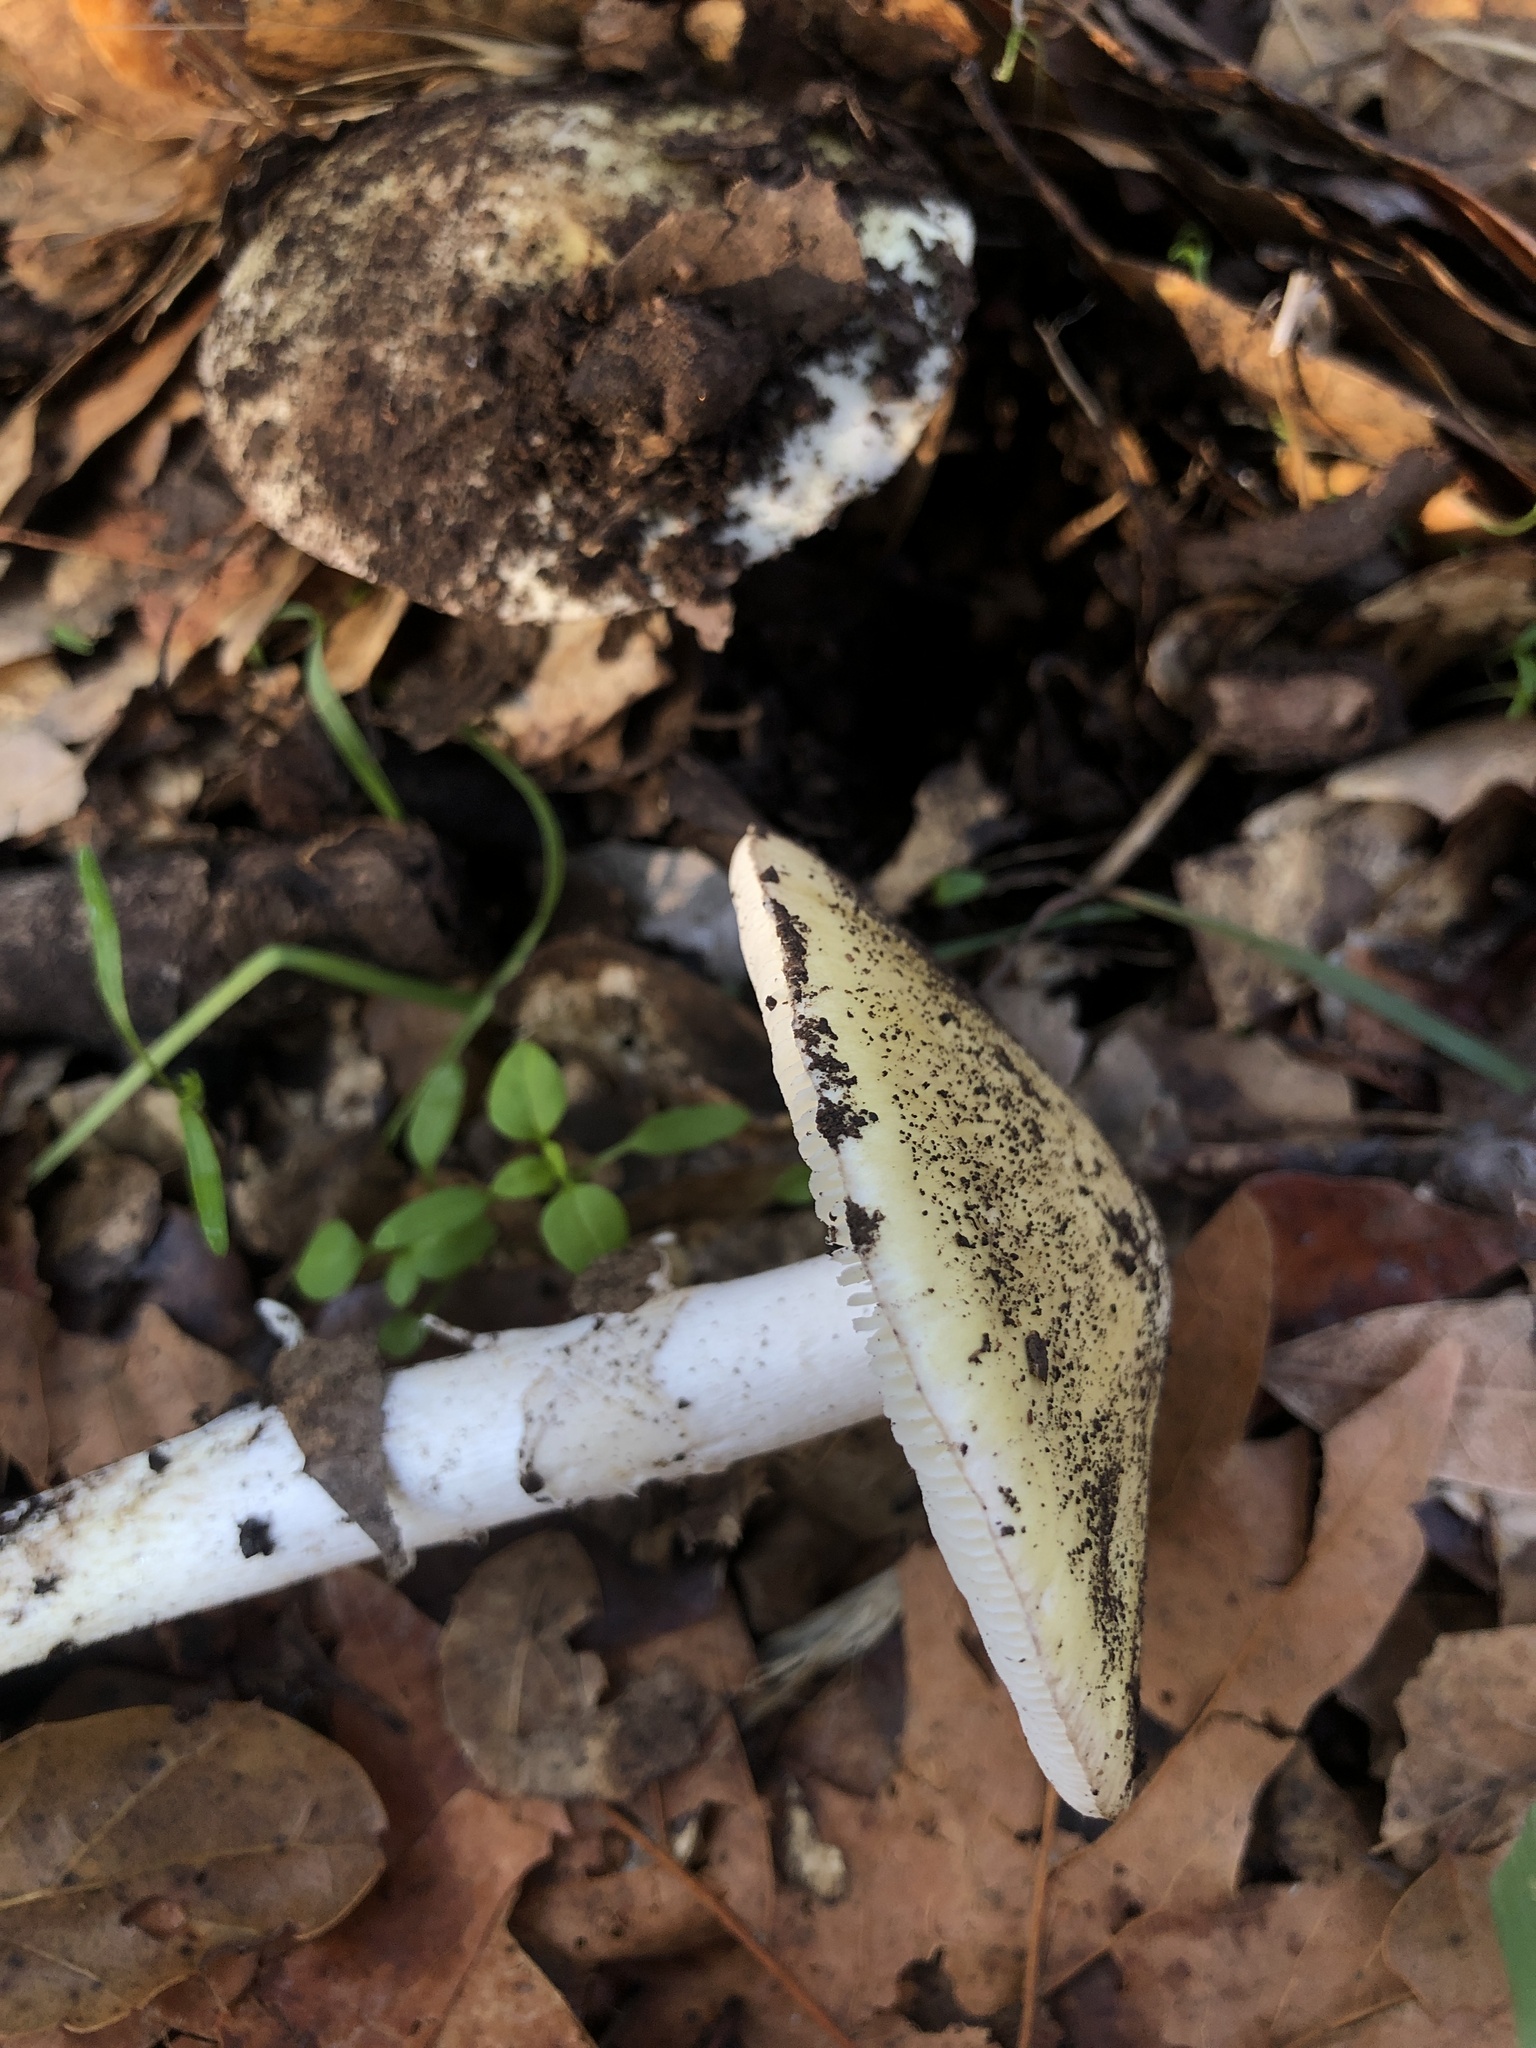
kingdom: Fungi
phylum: Basidiomycota
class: Agaricomycetes
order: Agaricales
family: Amanitaceae
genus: Amanita
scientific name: Amanita phalloides
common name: Death cap
